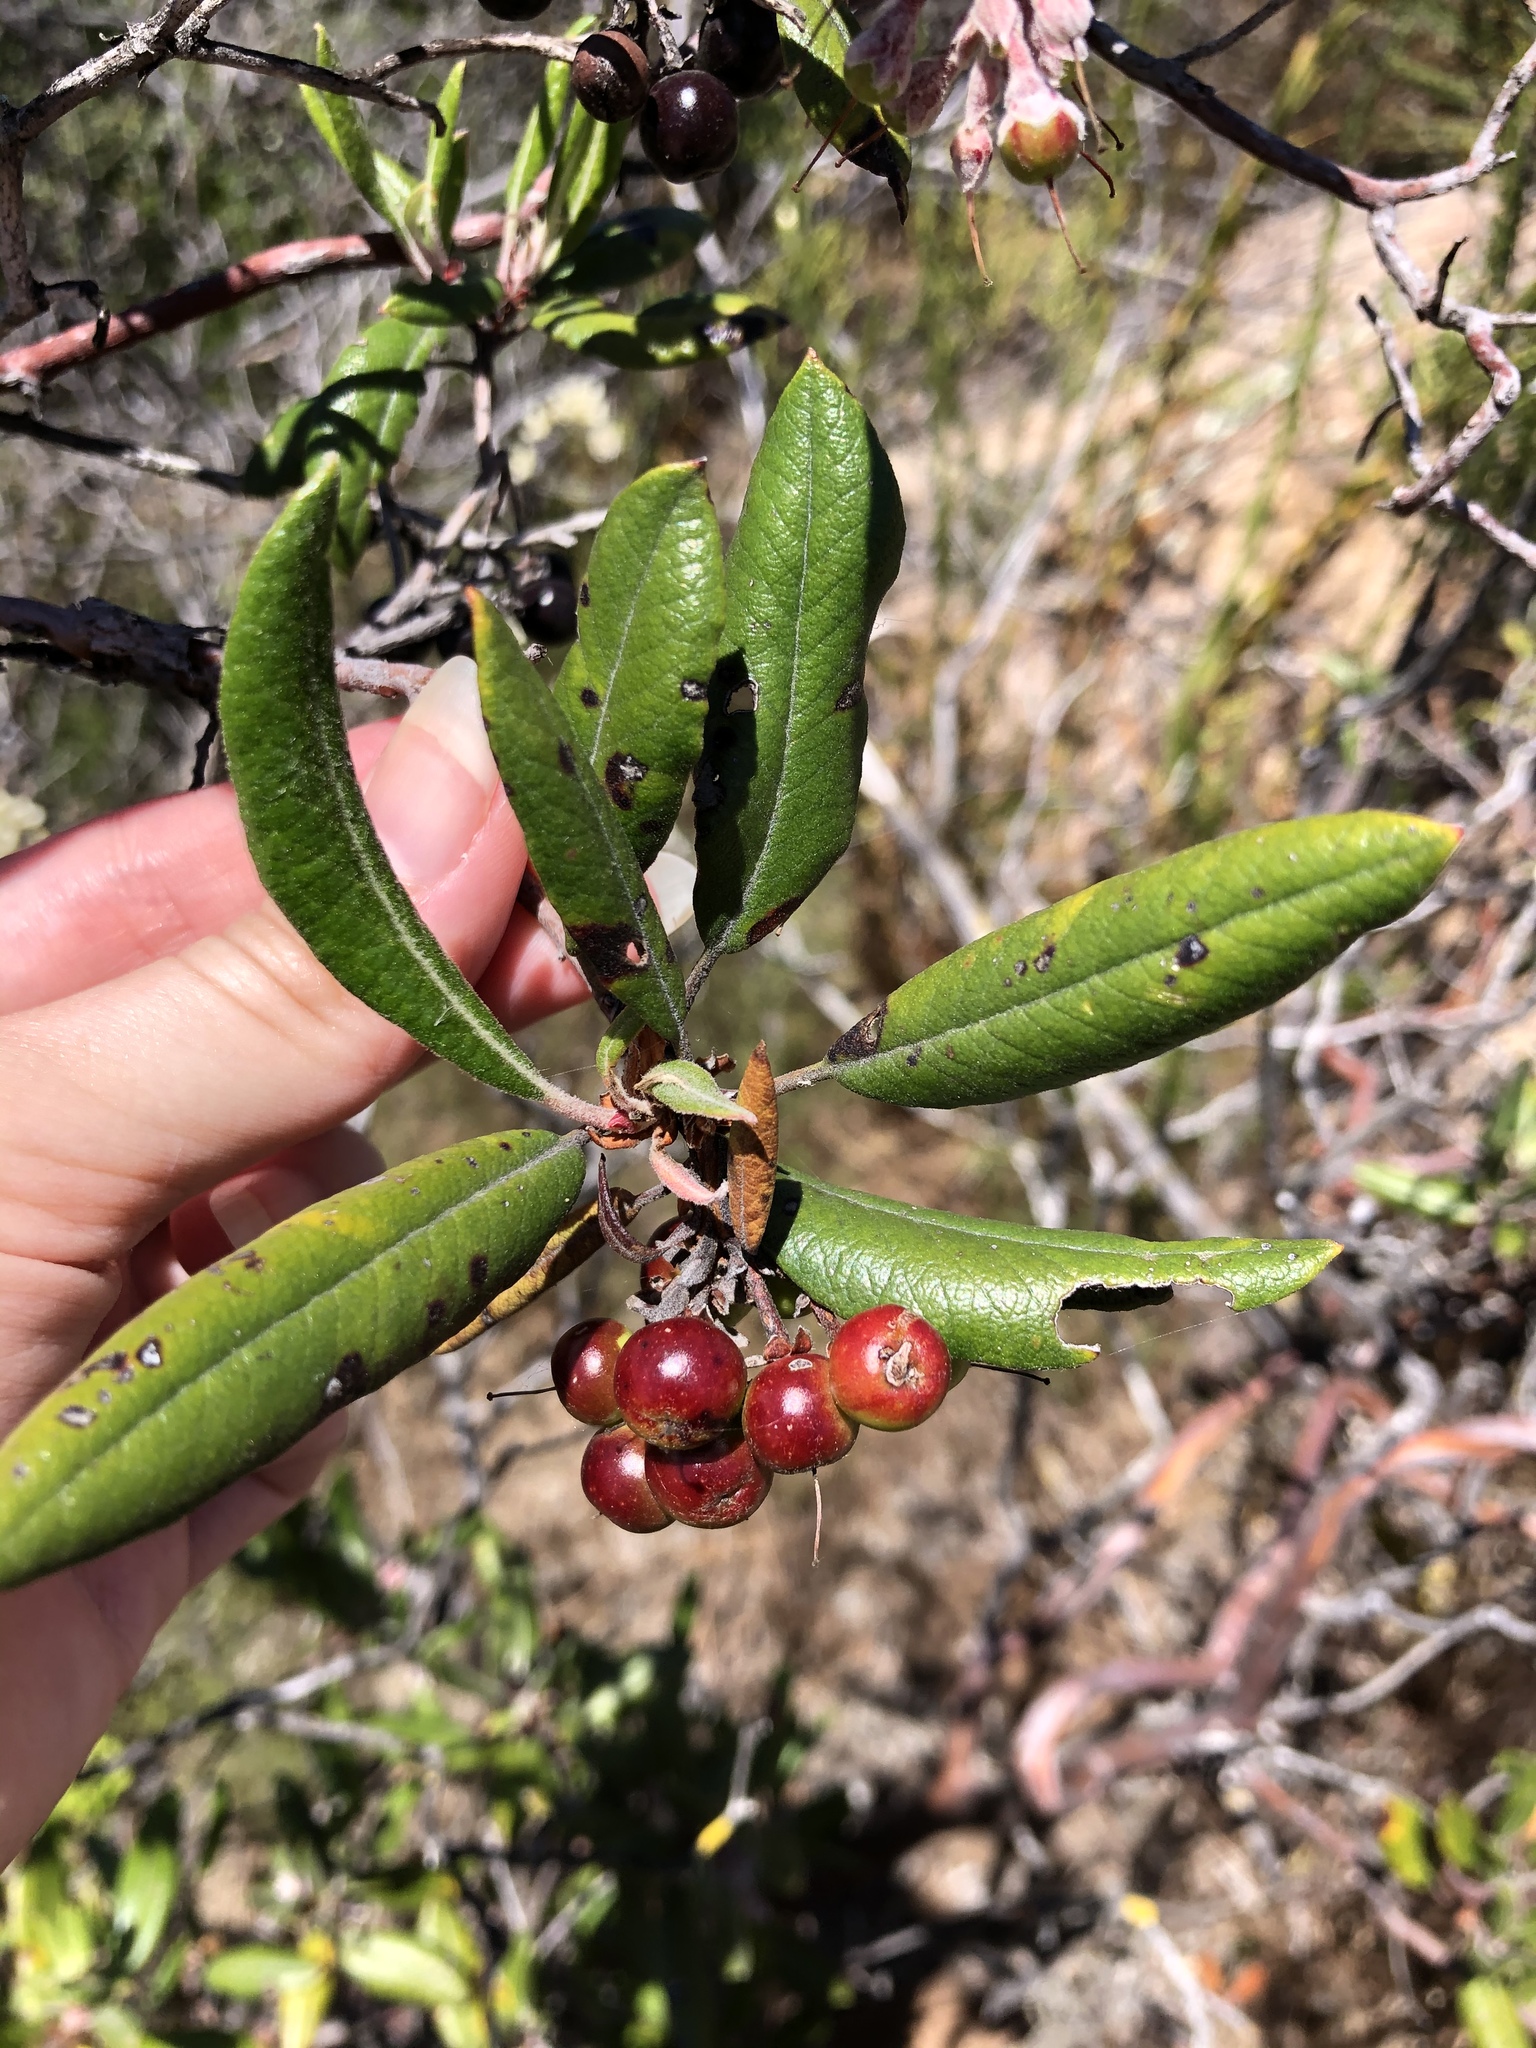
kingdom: Plantae
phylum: Tracheophyta
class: Magnoliopsida
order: Ericales
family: Ericaceae
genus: Arctostaphylos
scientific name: Arctostaphylos bicolor
